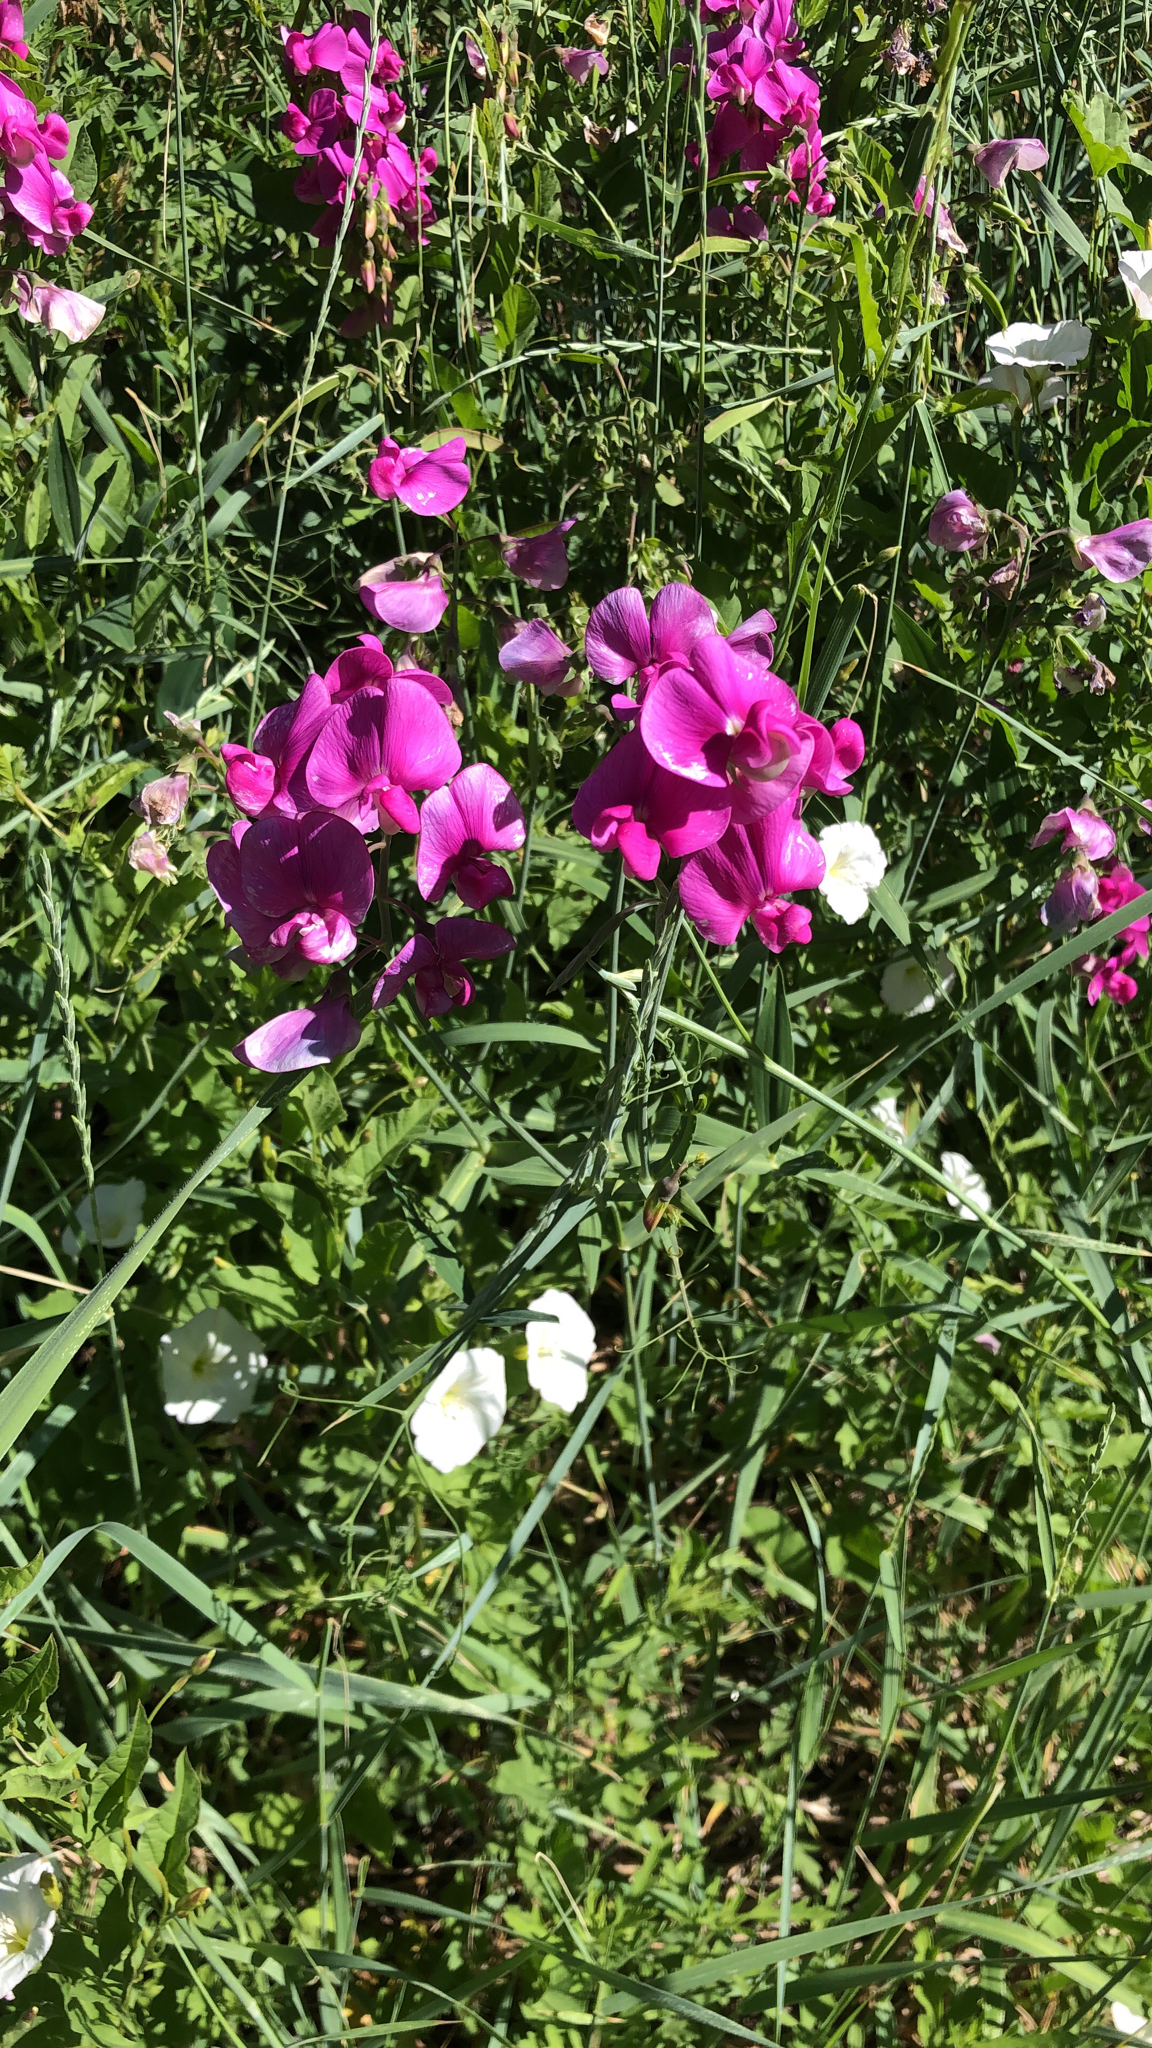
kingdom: Plantae
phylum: Tracheophyta
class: Magnoliopsida
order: Fabales
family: Fabaceae
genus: Lathyrus
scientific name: Lathyrus latifolius
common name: Perennial pea
